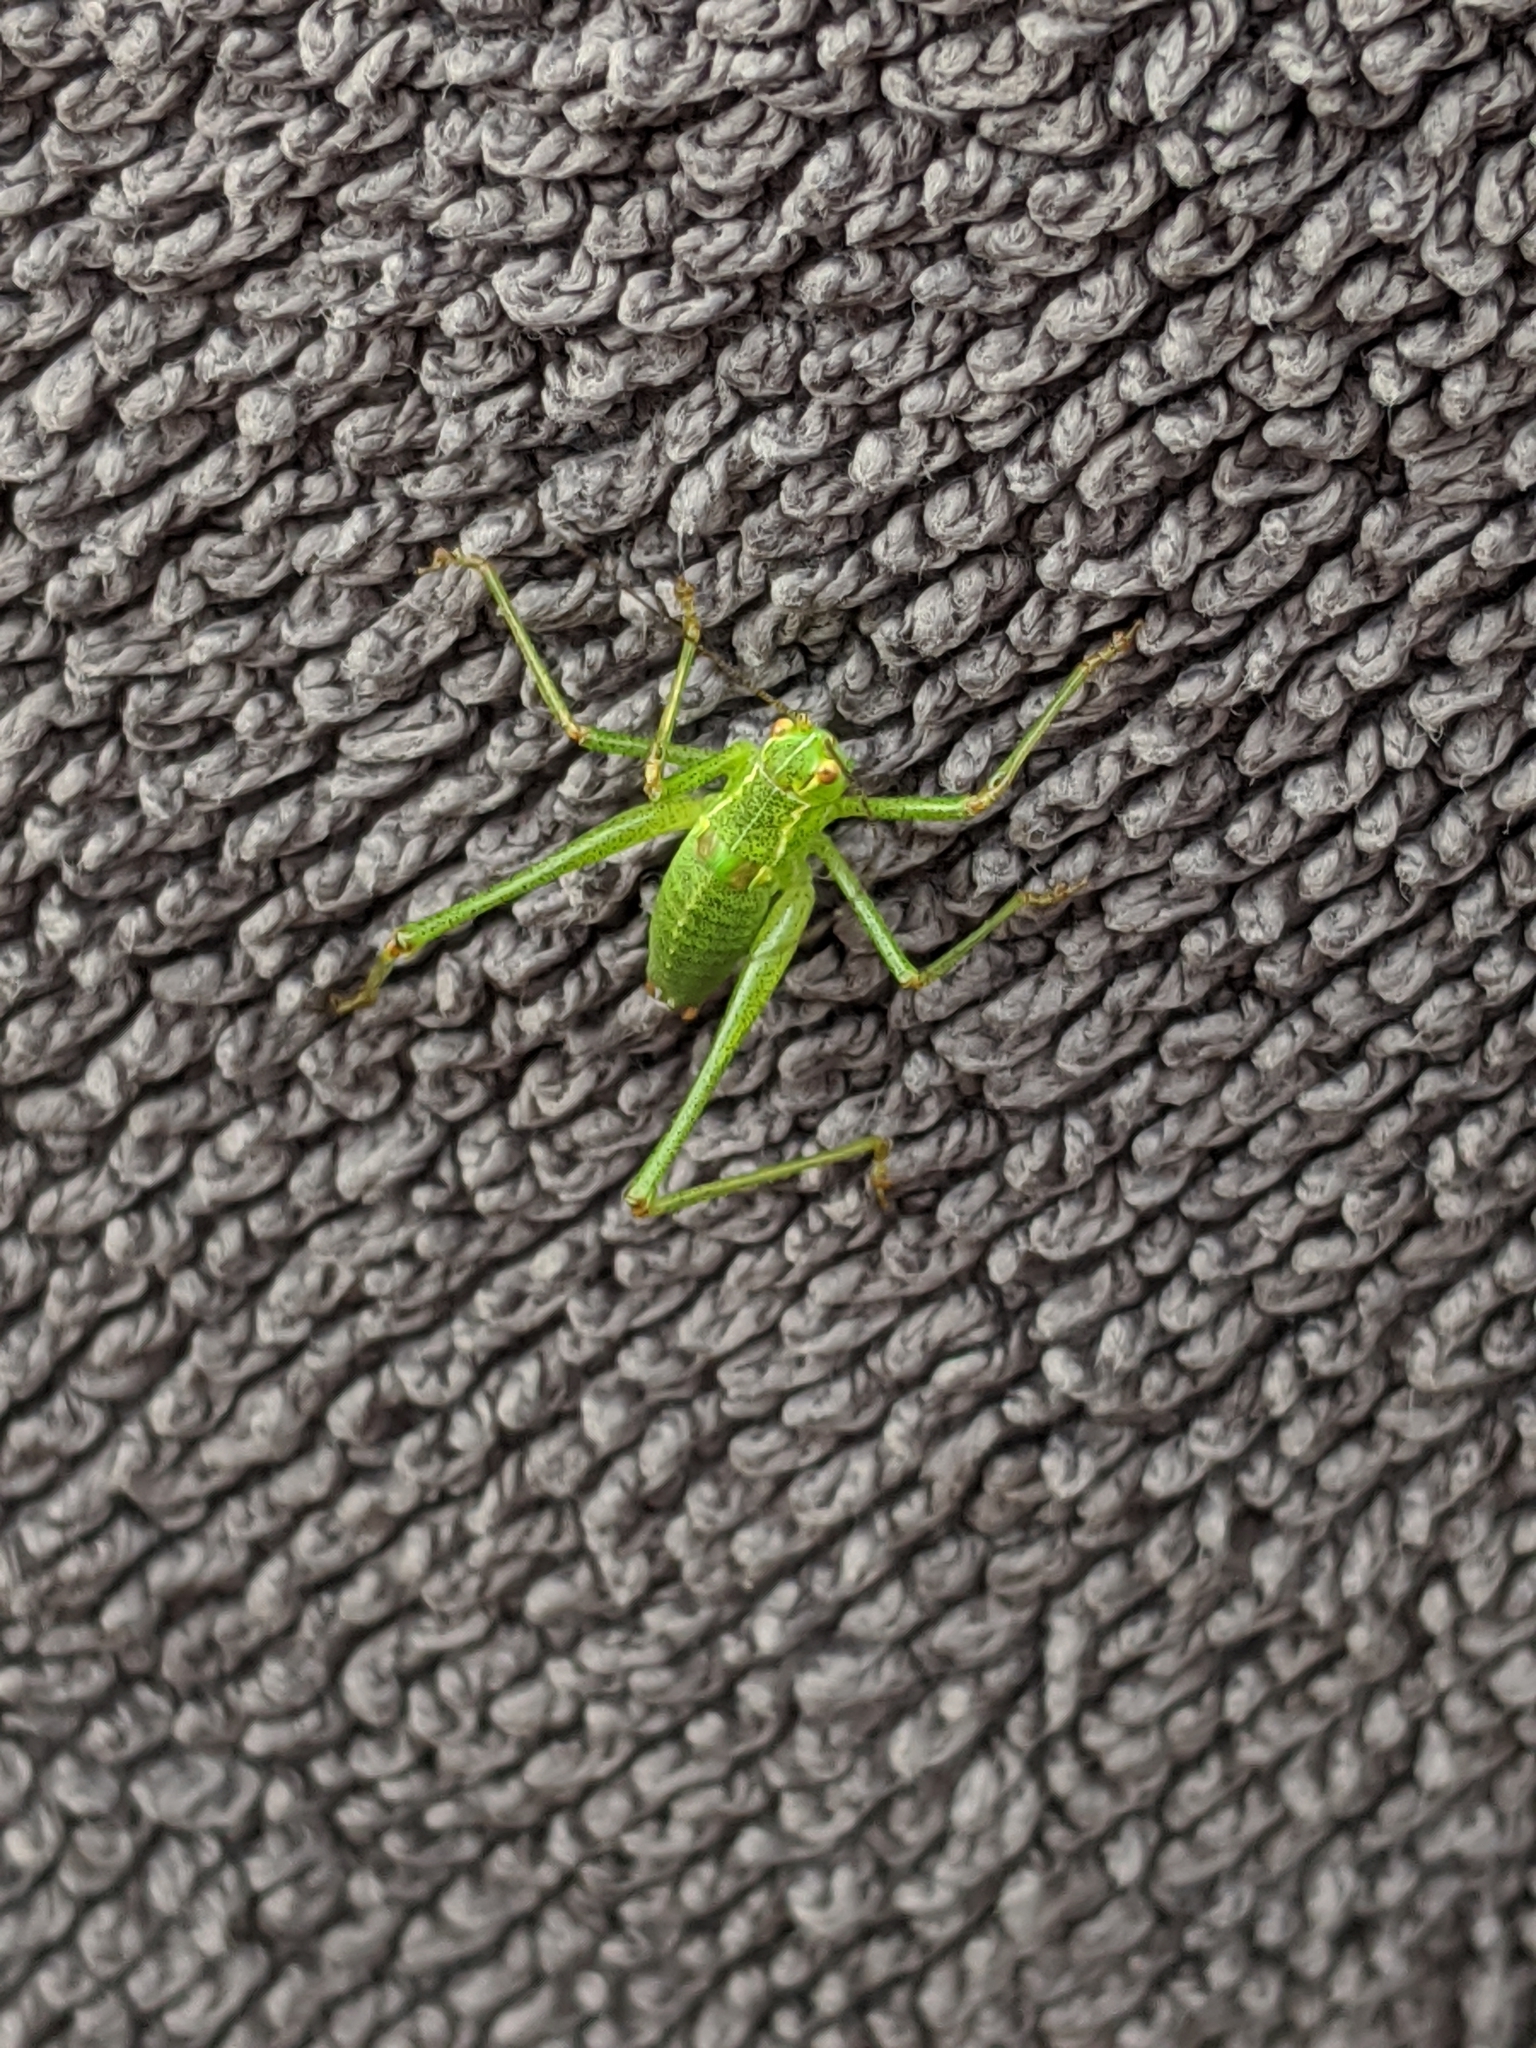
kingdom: Animalia
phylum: Arthropoda
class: Insecta
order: Orthoptera
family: Tettigoniidae
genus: Leptophyes
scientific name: Leptophyes punctatissima
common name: Speckled bush-cricket
